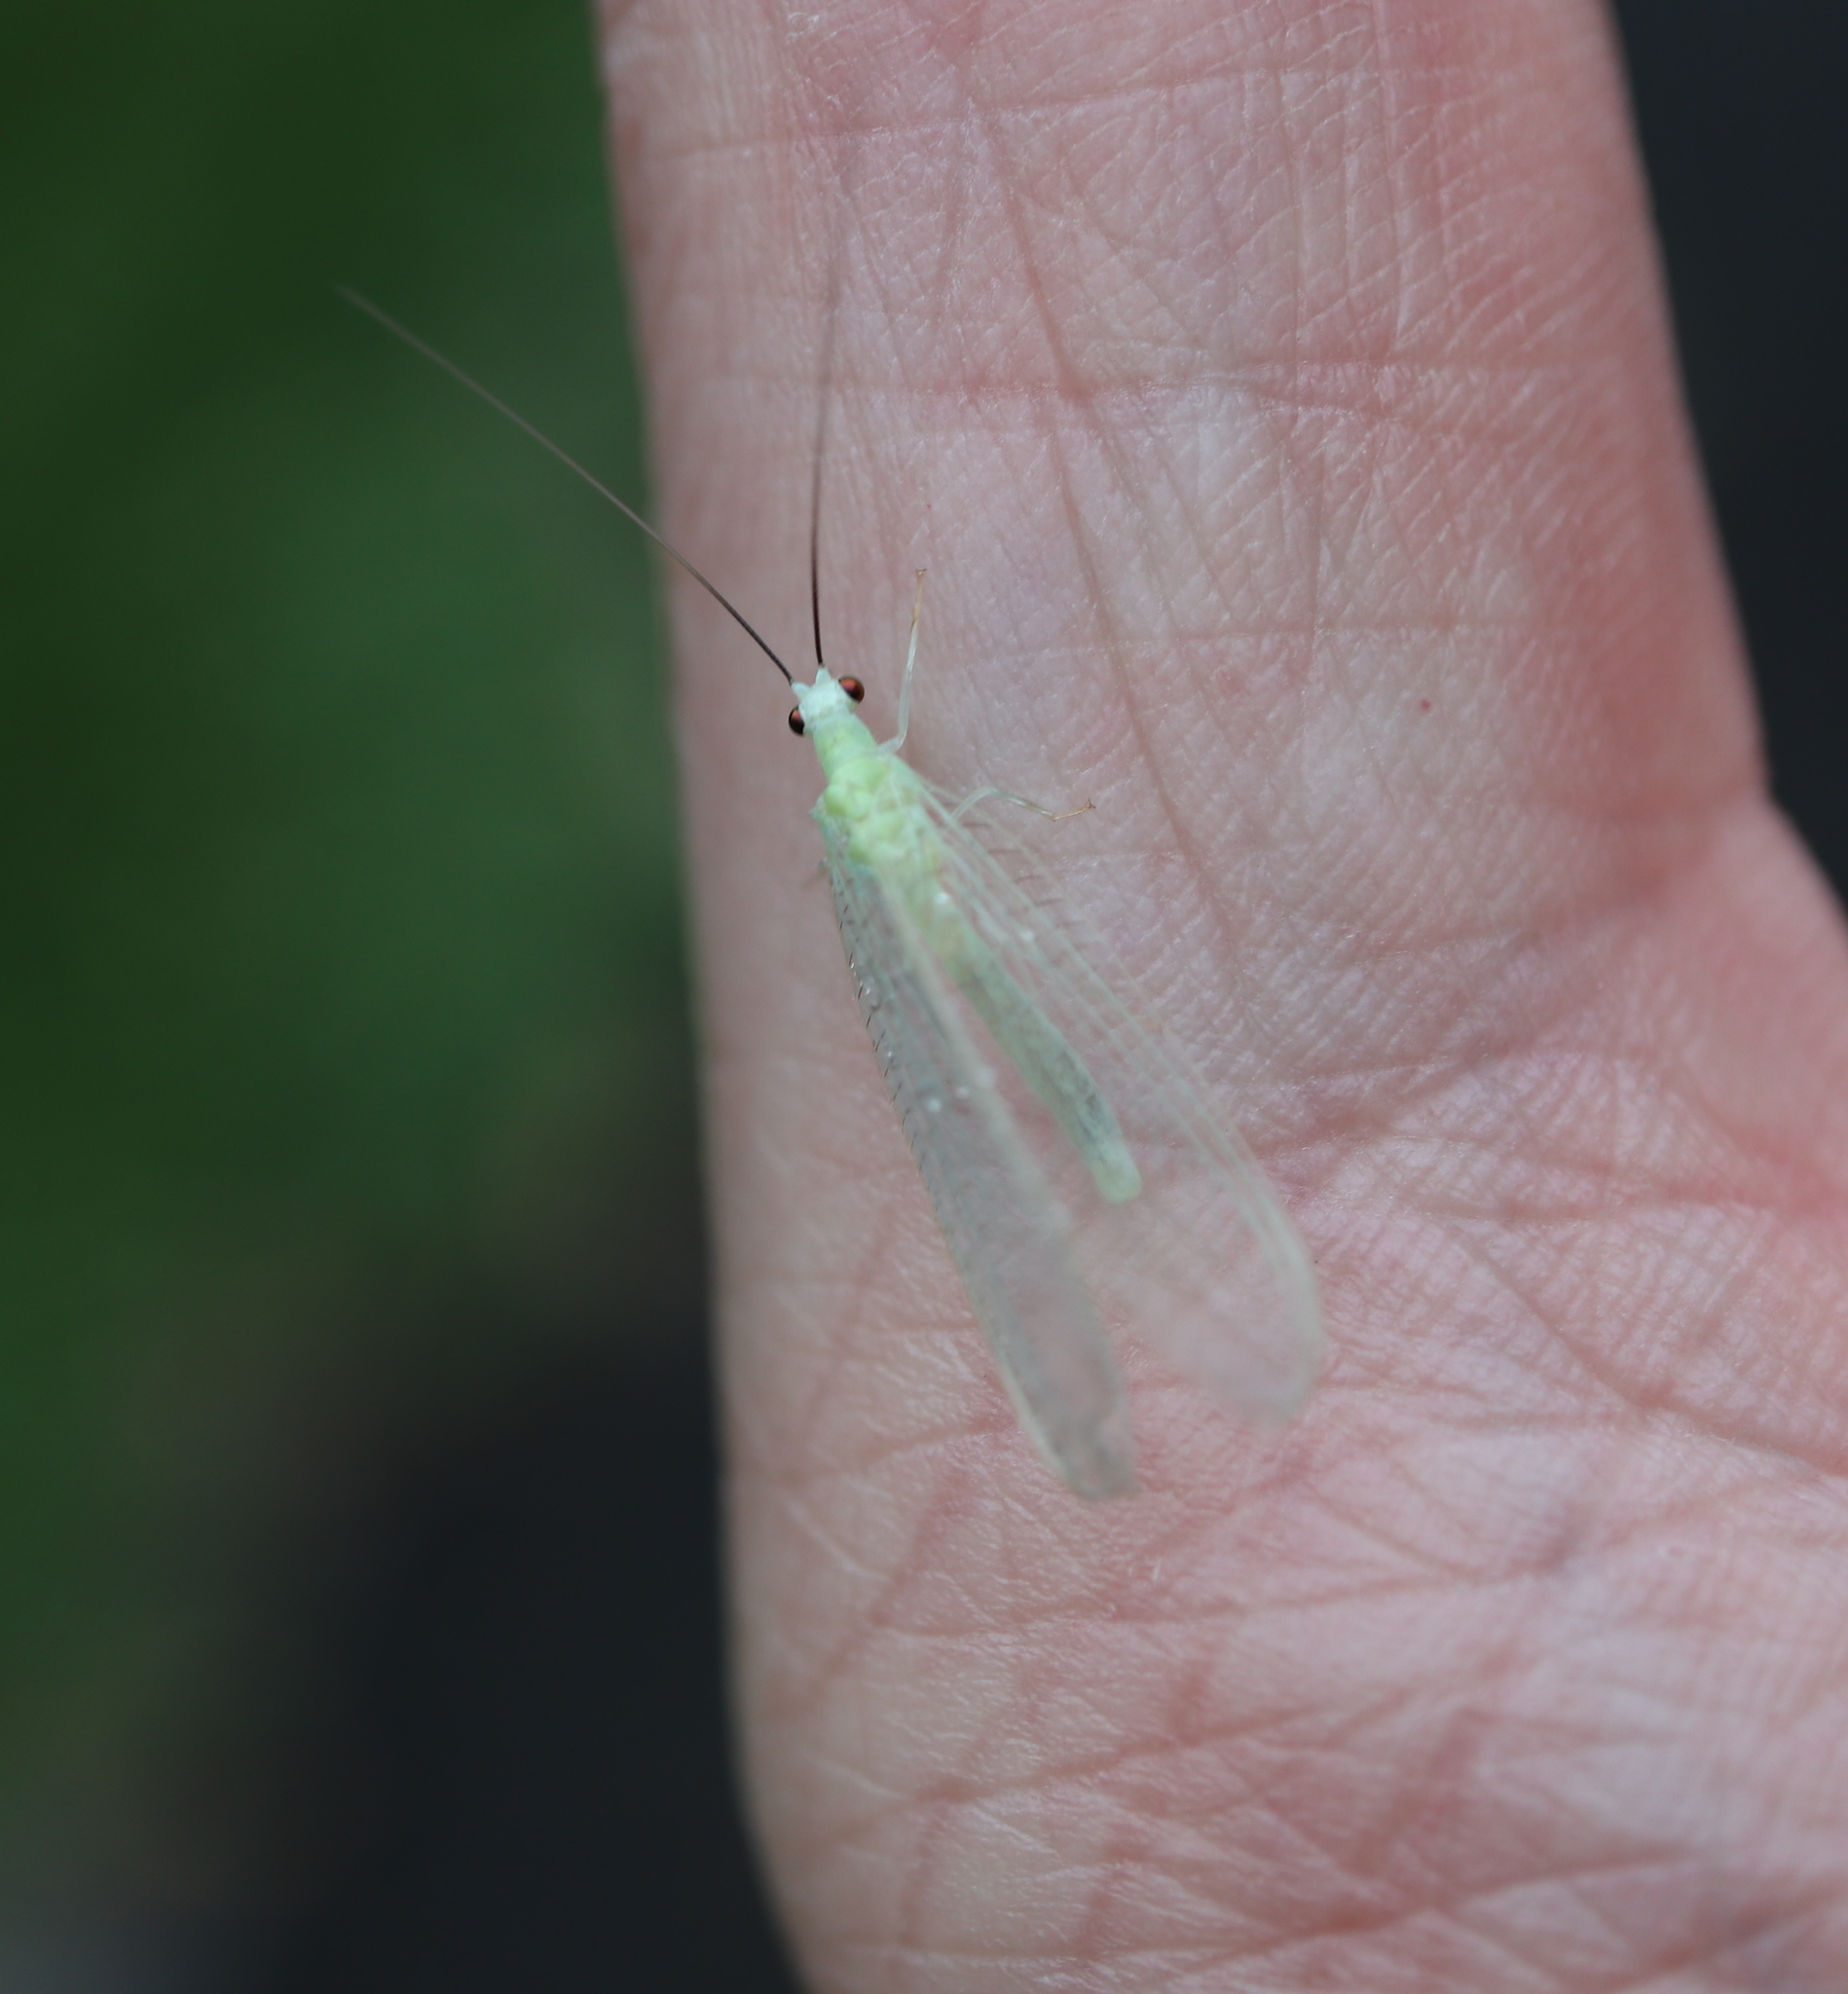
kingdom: Animalia
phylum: Arthropoda
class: Insecta
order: Neuroptera
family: Chrysopidae
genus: Chrysopa
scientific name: Chrysopa nigricornis
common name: Black-horned green lacewing
